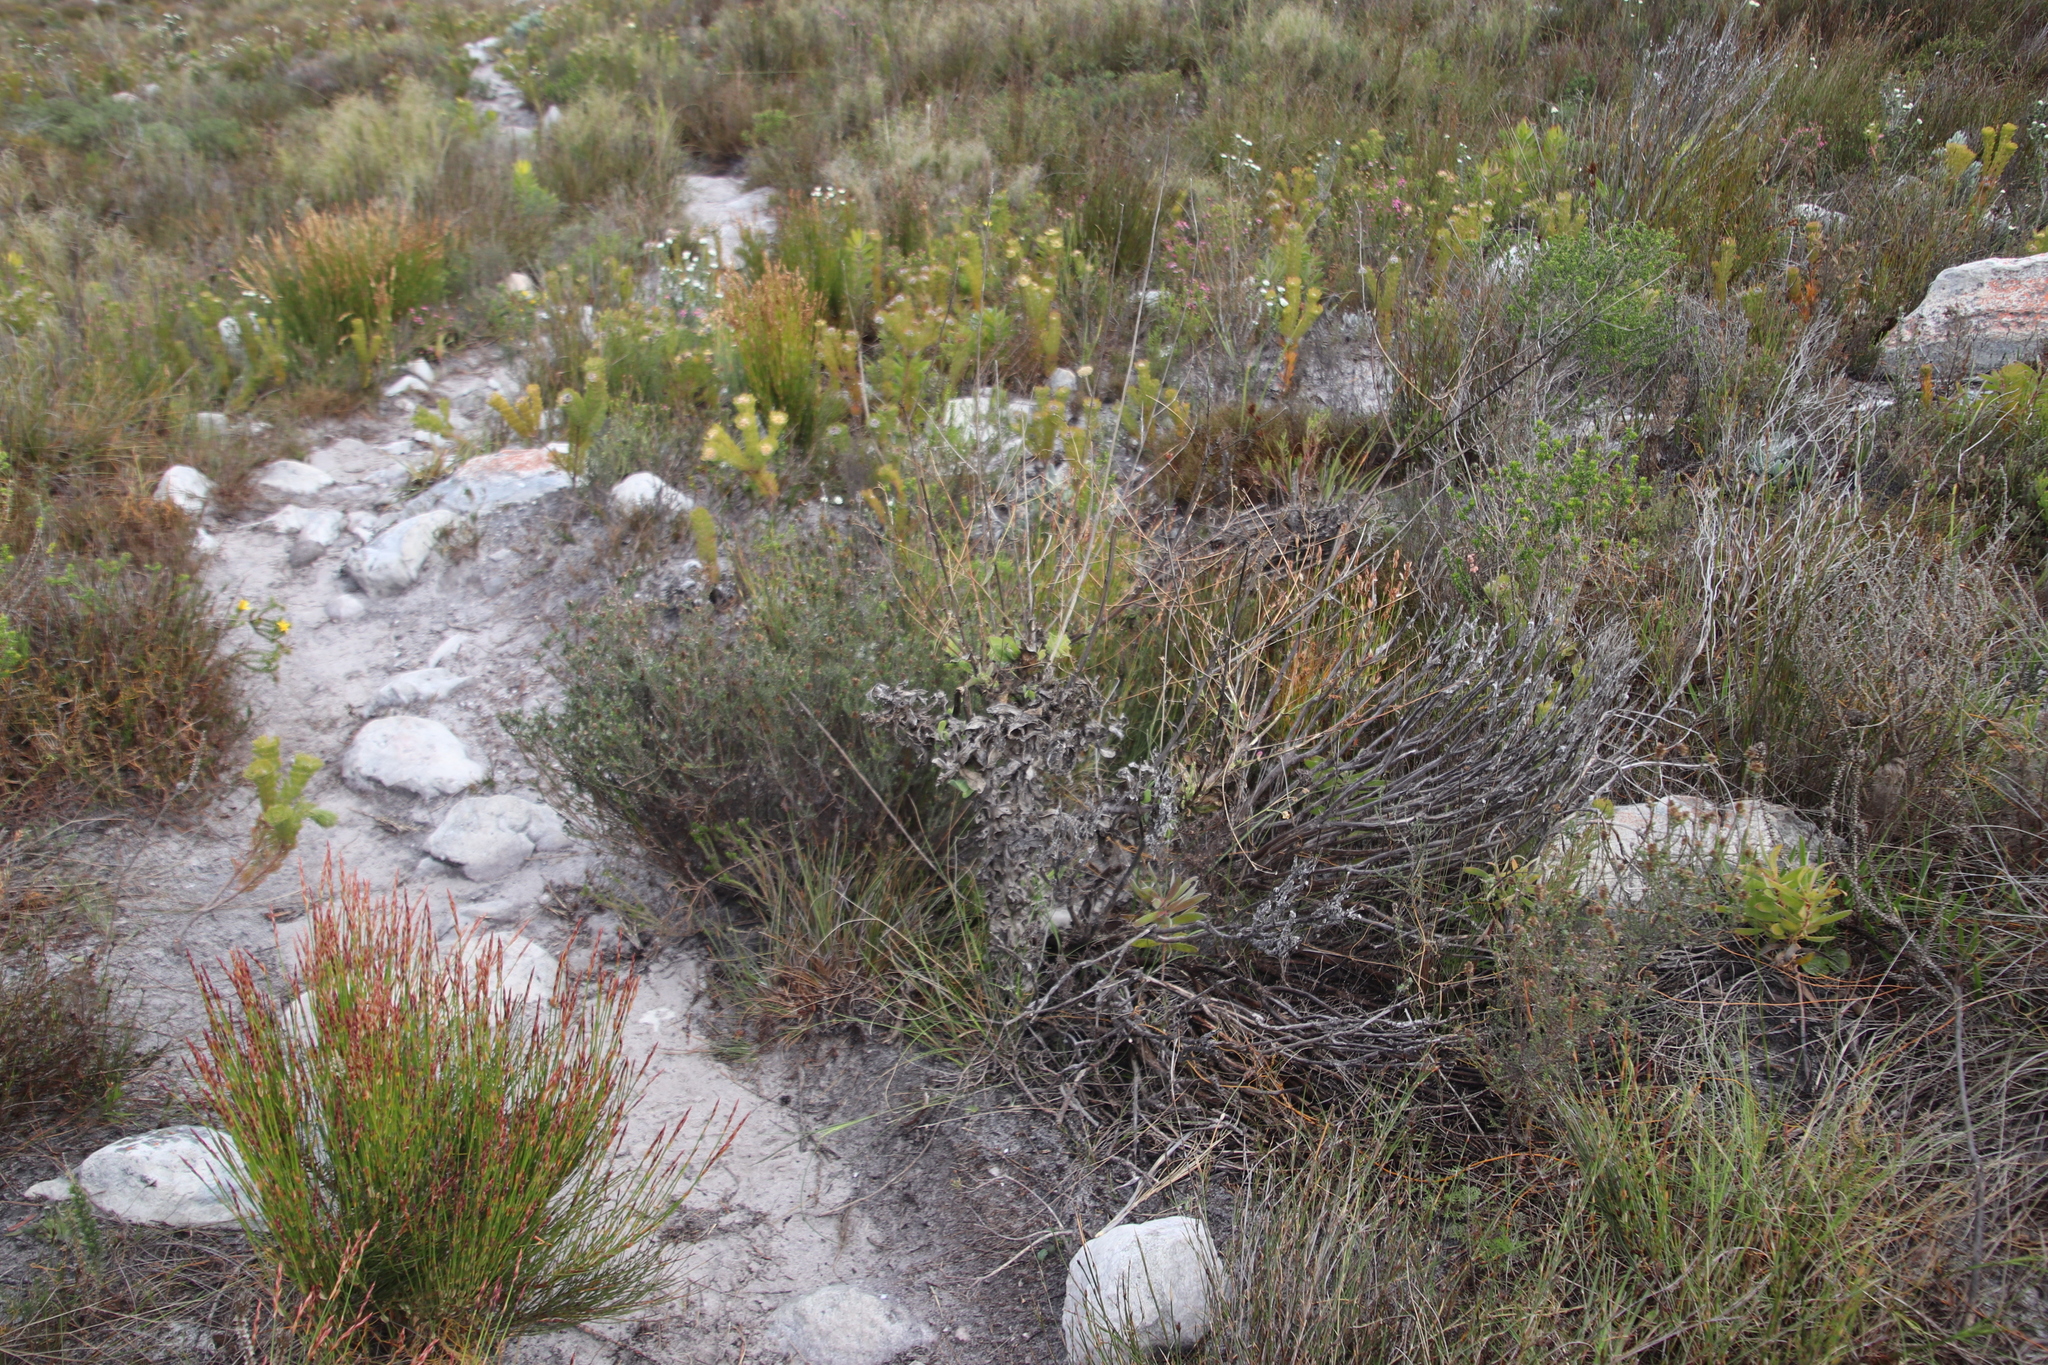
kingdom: Plantae
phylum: Tracheophyta
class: Magnoliopsida
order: Asterales
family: Asteraceae
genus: Othonna
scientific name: Othonna quinquedentata
